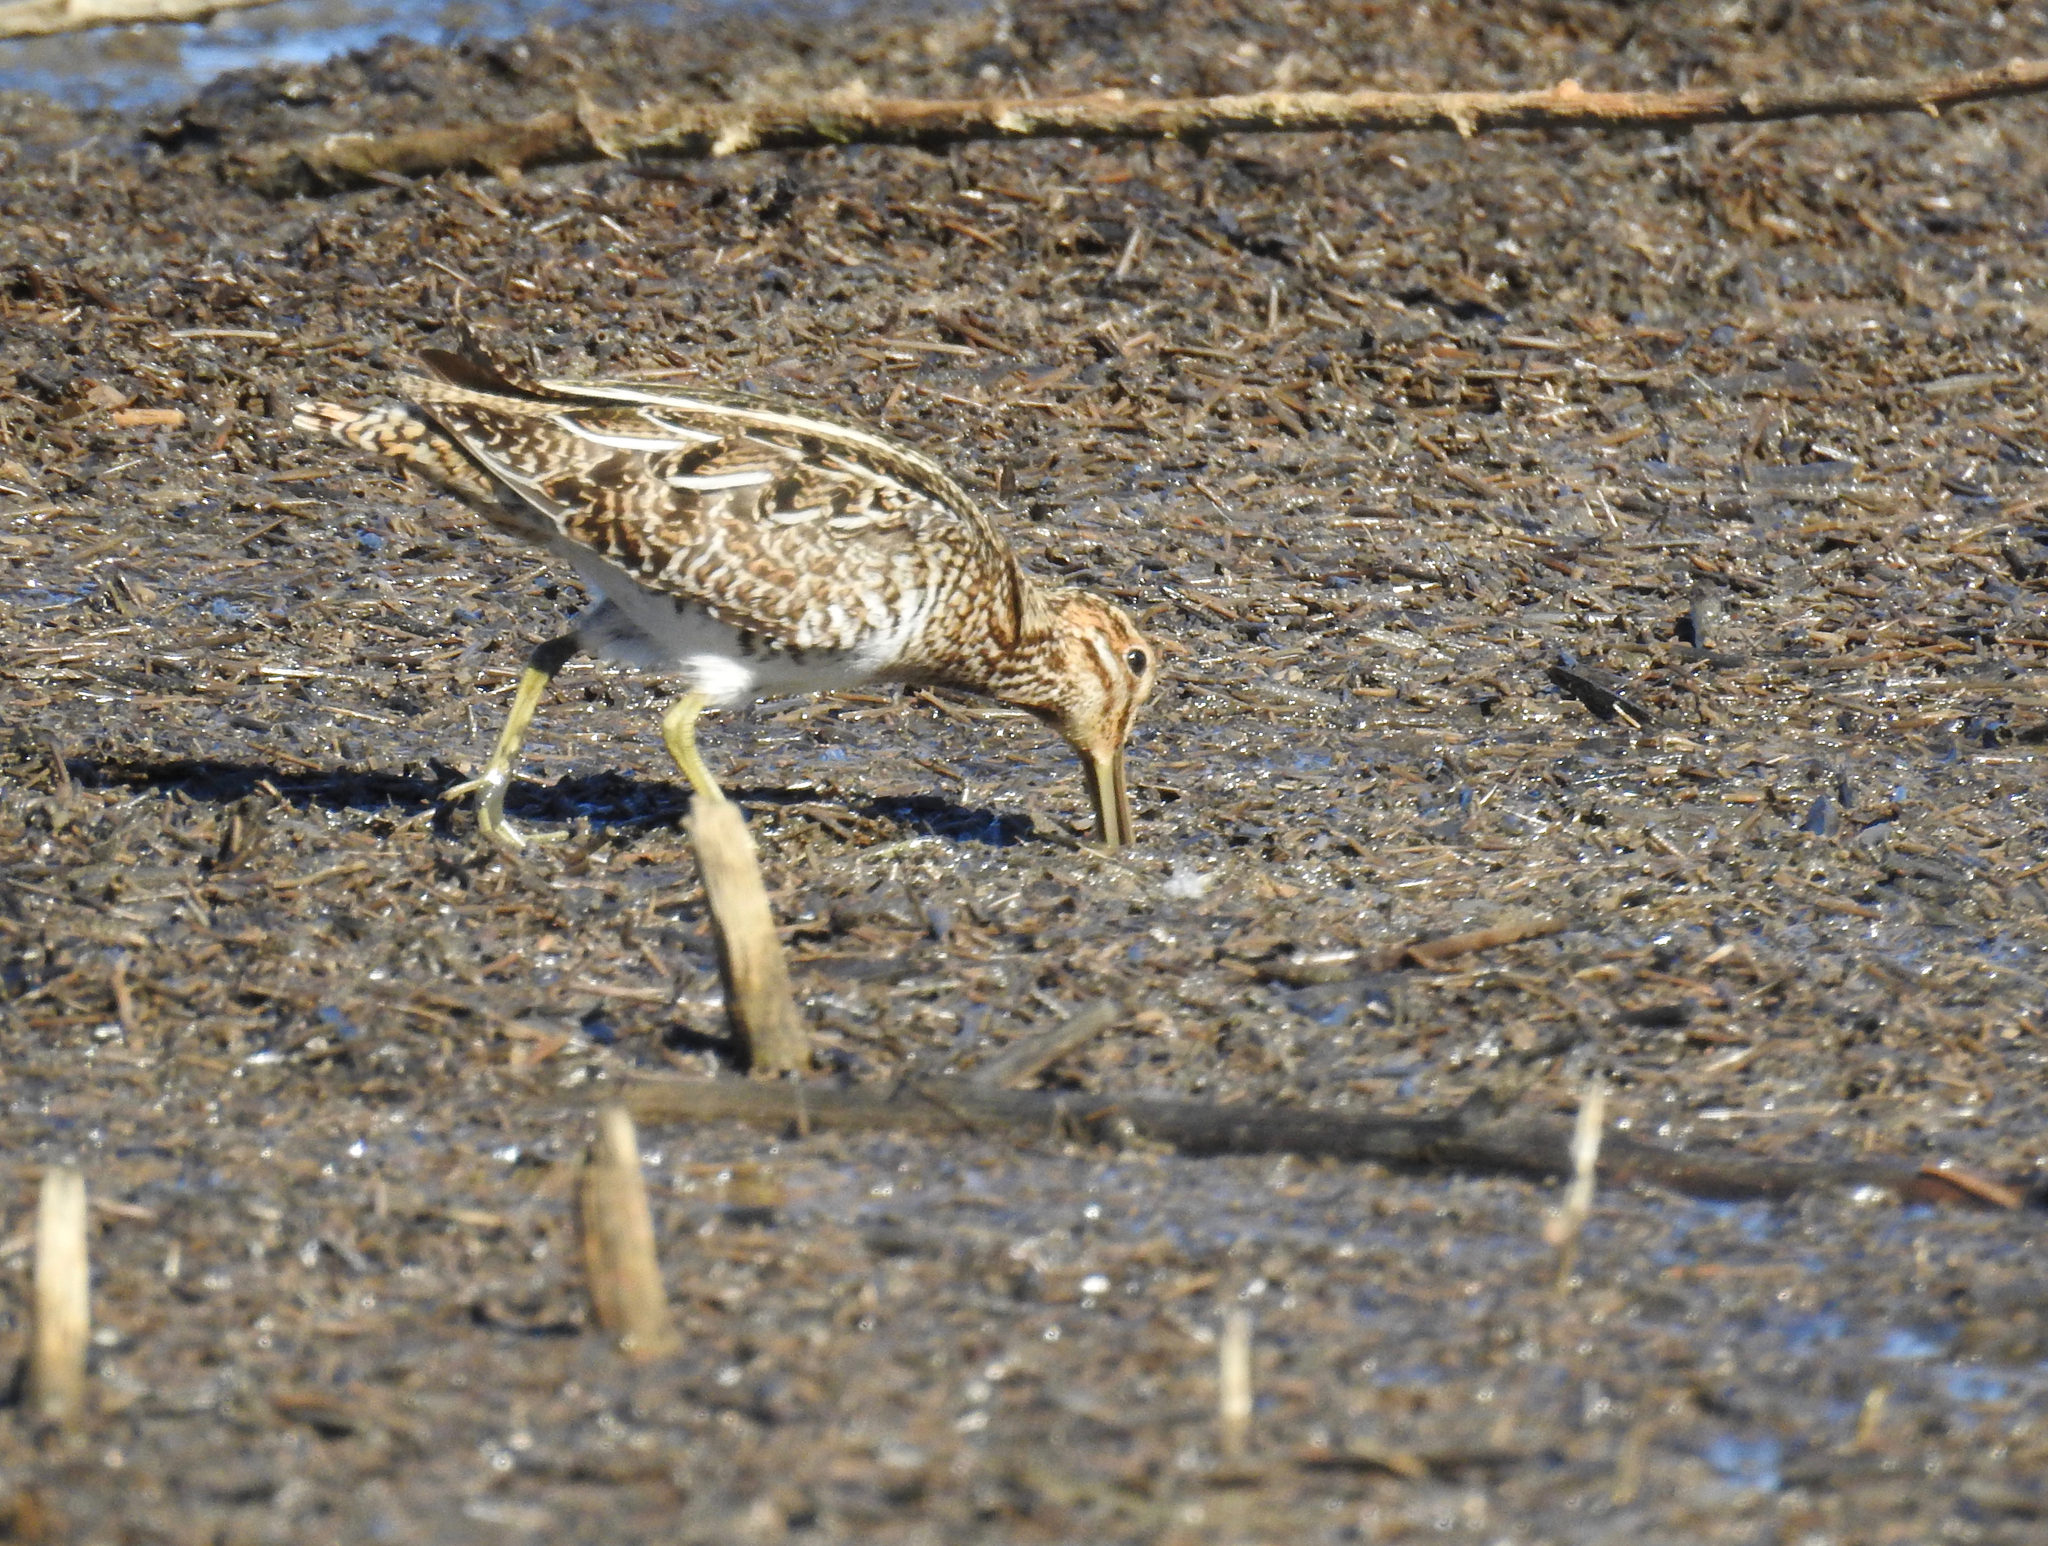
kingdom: Animalia
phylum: Chordata
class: Aves
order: Charadriiformes
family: Scolopacidae
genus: Gallinago
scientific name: Gallinago delicata
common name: Wilson's snipe
